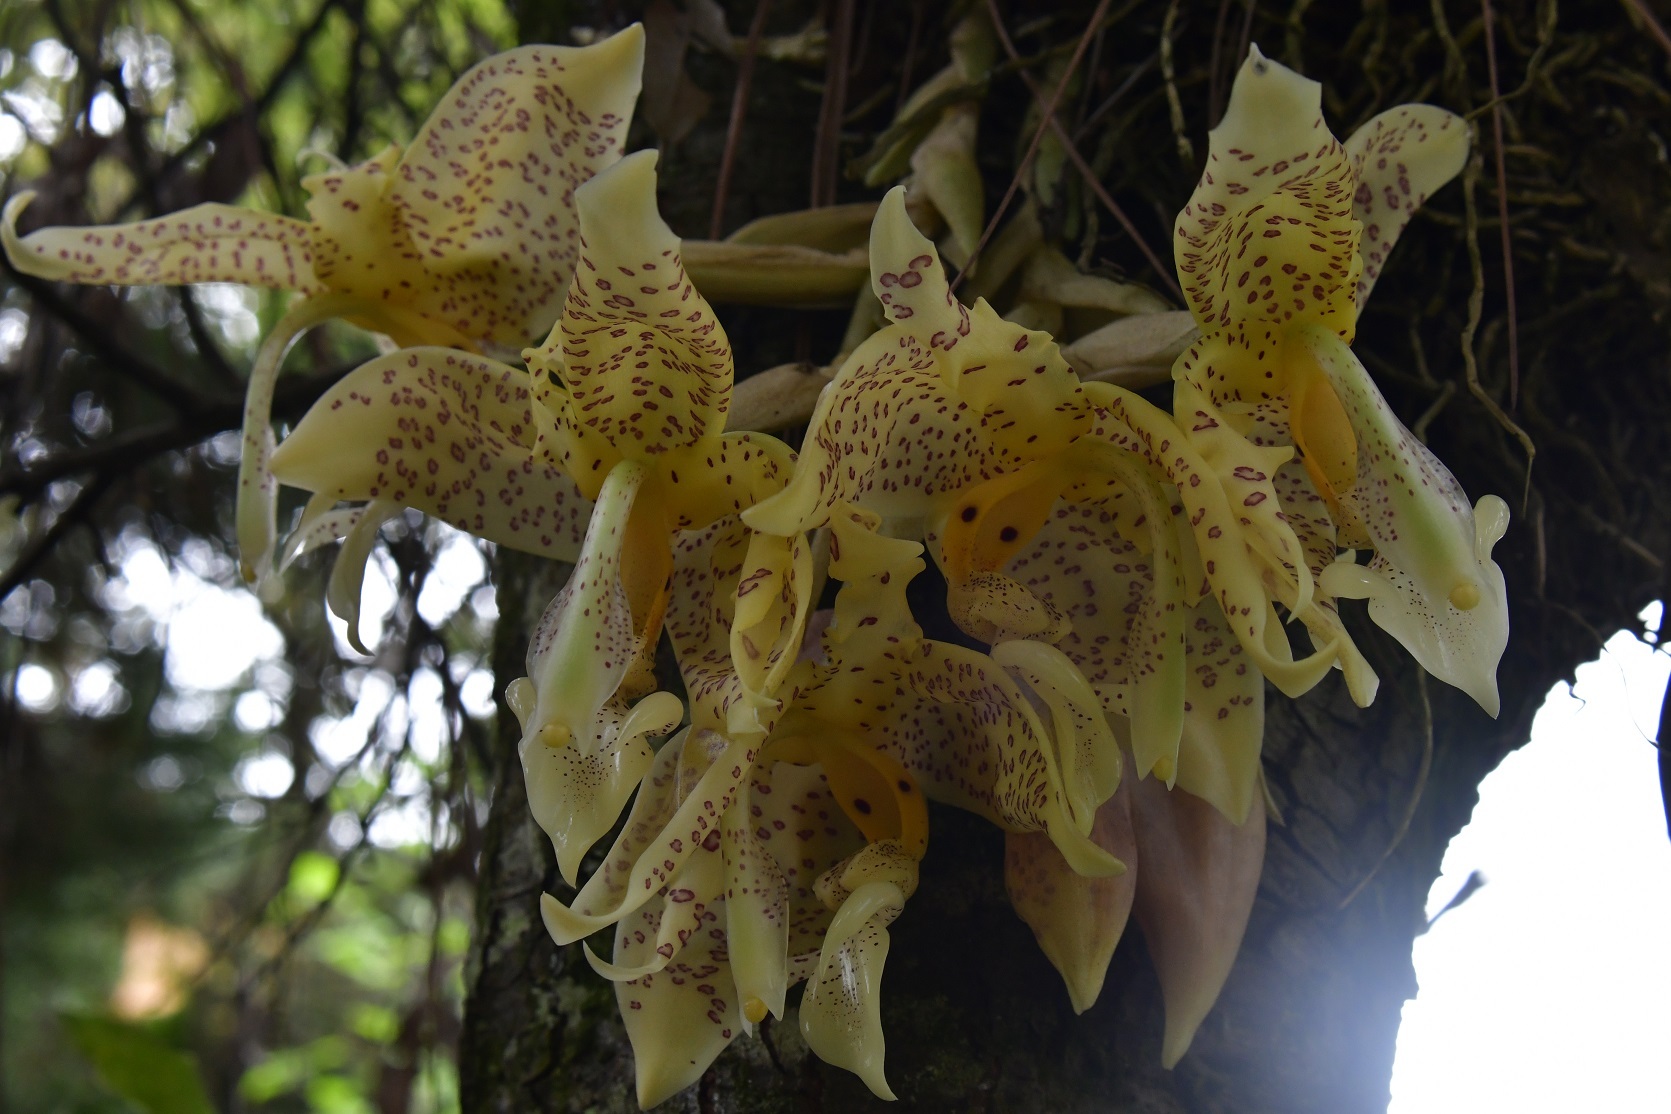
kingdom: Plantae
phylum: Tracheophyta
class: Liliopsida
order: Asparagales
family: Orchidaceae
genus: Stanhopea
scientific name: Stanhopea oculata
